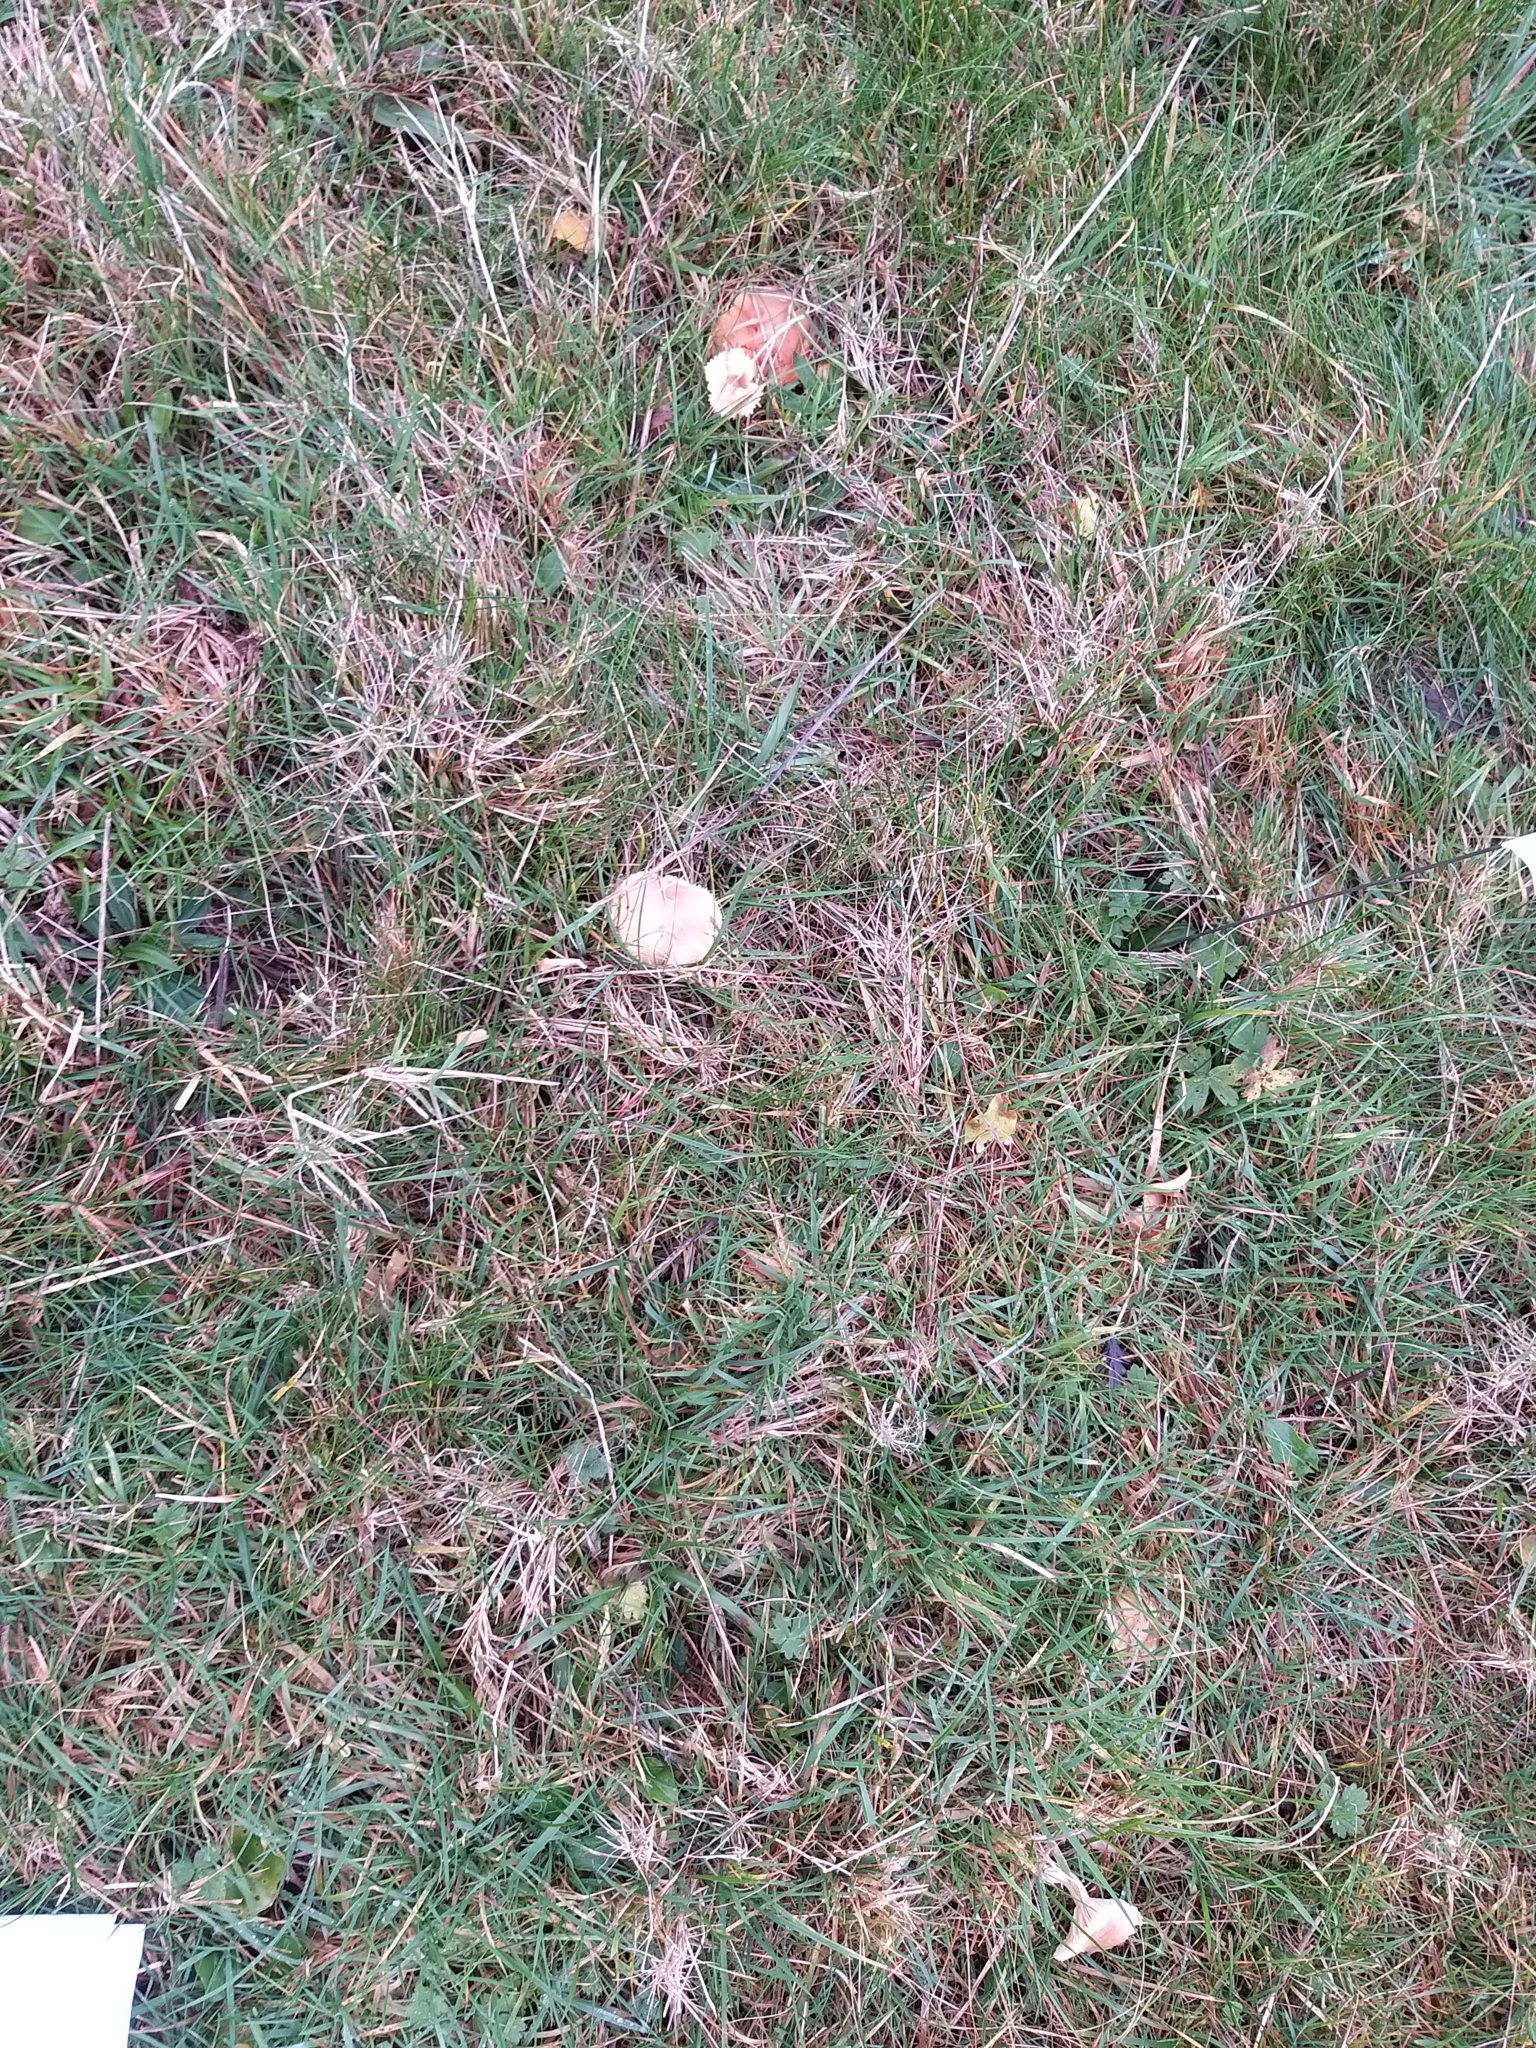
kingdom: Fungi
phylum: Basidiomycota
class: Agaricomycetes
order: Agaricales
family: Hygrophoraceae
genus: Cuphophyllus
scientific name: Cuphophyllus pratensis
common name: Meadow waxcap
